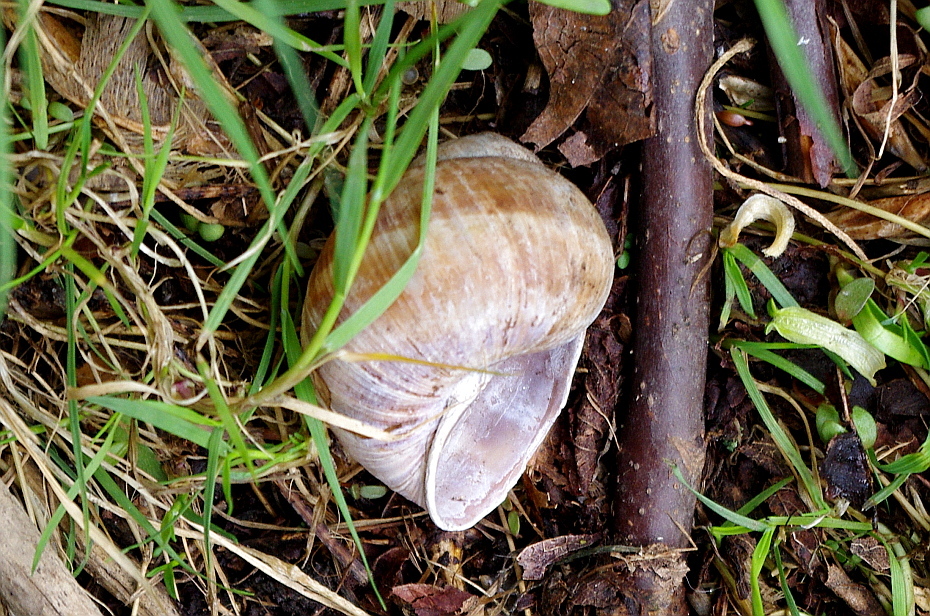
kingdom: Animalia
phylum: Mollusca
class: Gastropoda
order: Stylommatophora
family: Helicidae
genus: Helix
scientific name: Helix pomatia
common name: Roman snail
